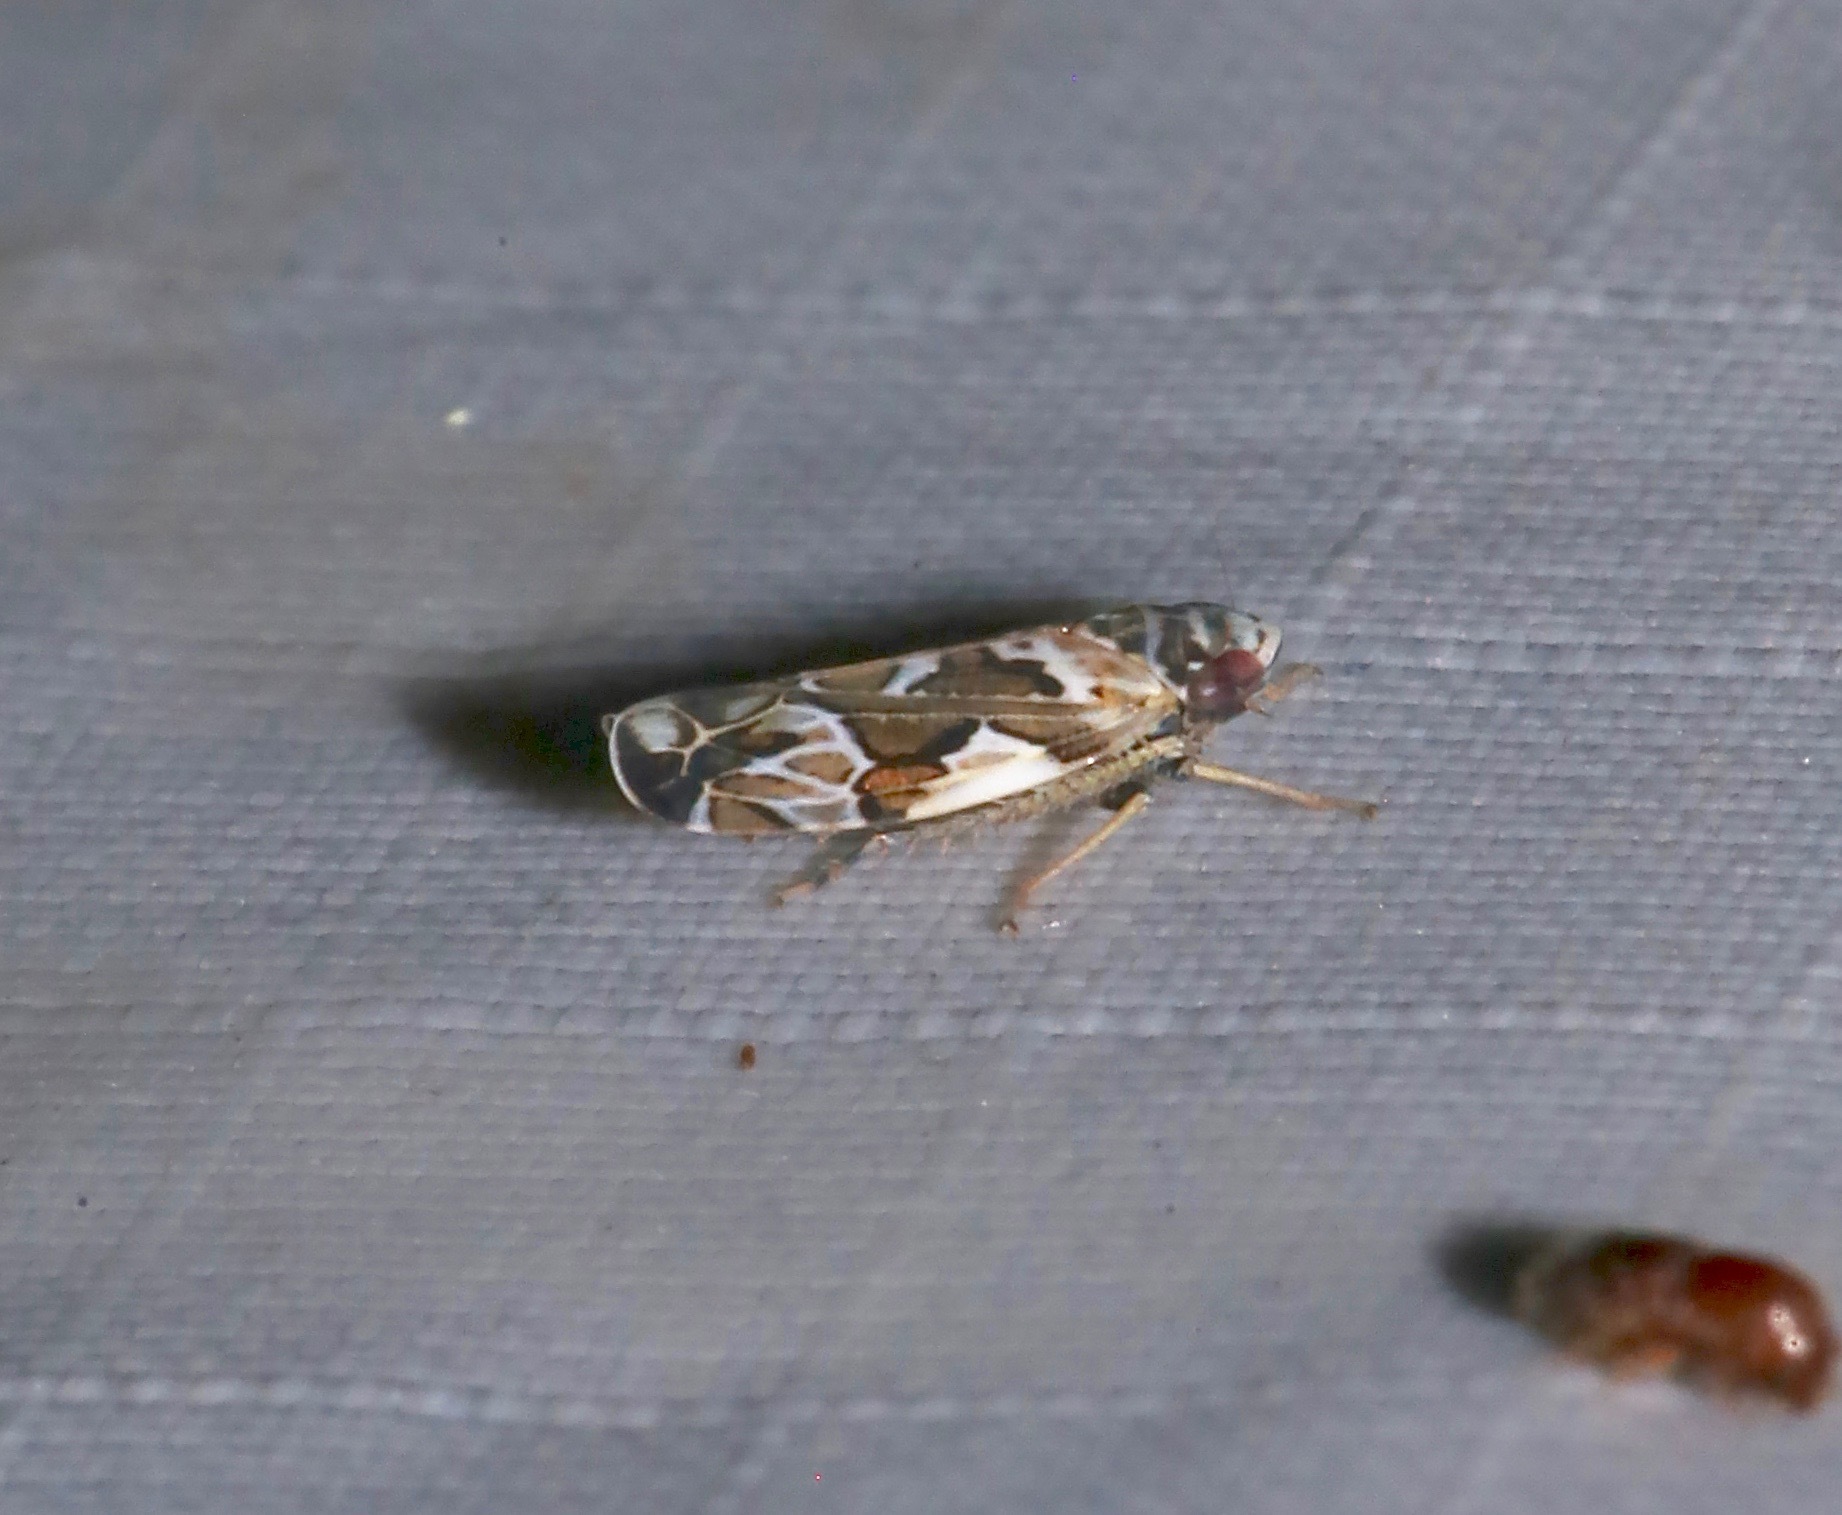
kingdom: Animalia
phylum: Arthropoda
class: Insecta
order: Hemiptera
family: Cicadellidae
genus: Sanctanus
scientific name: Sanctanus cruciatus
